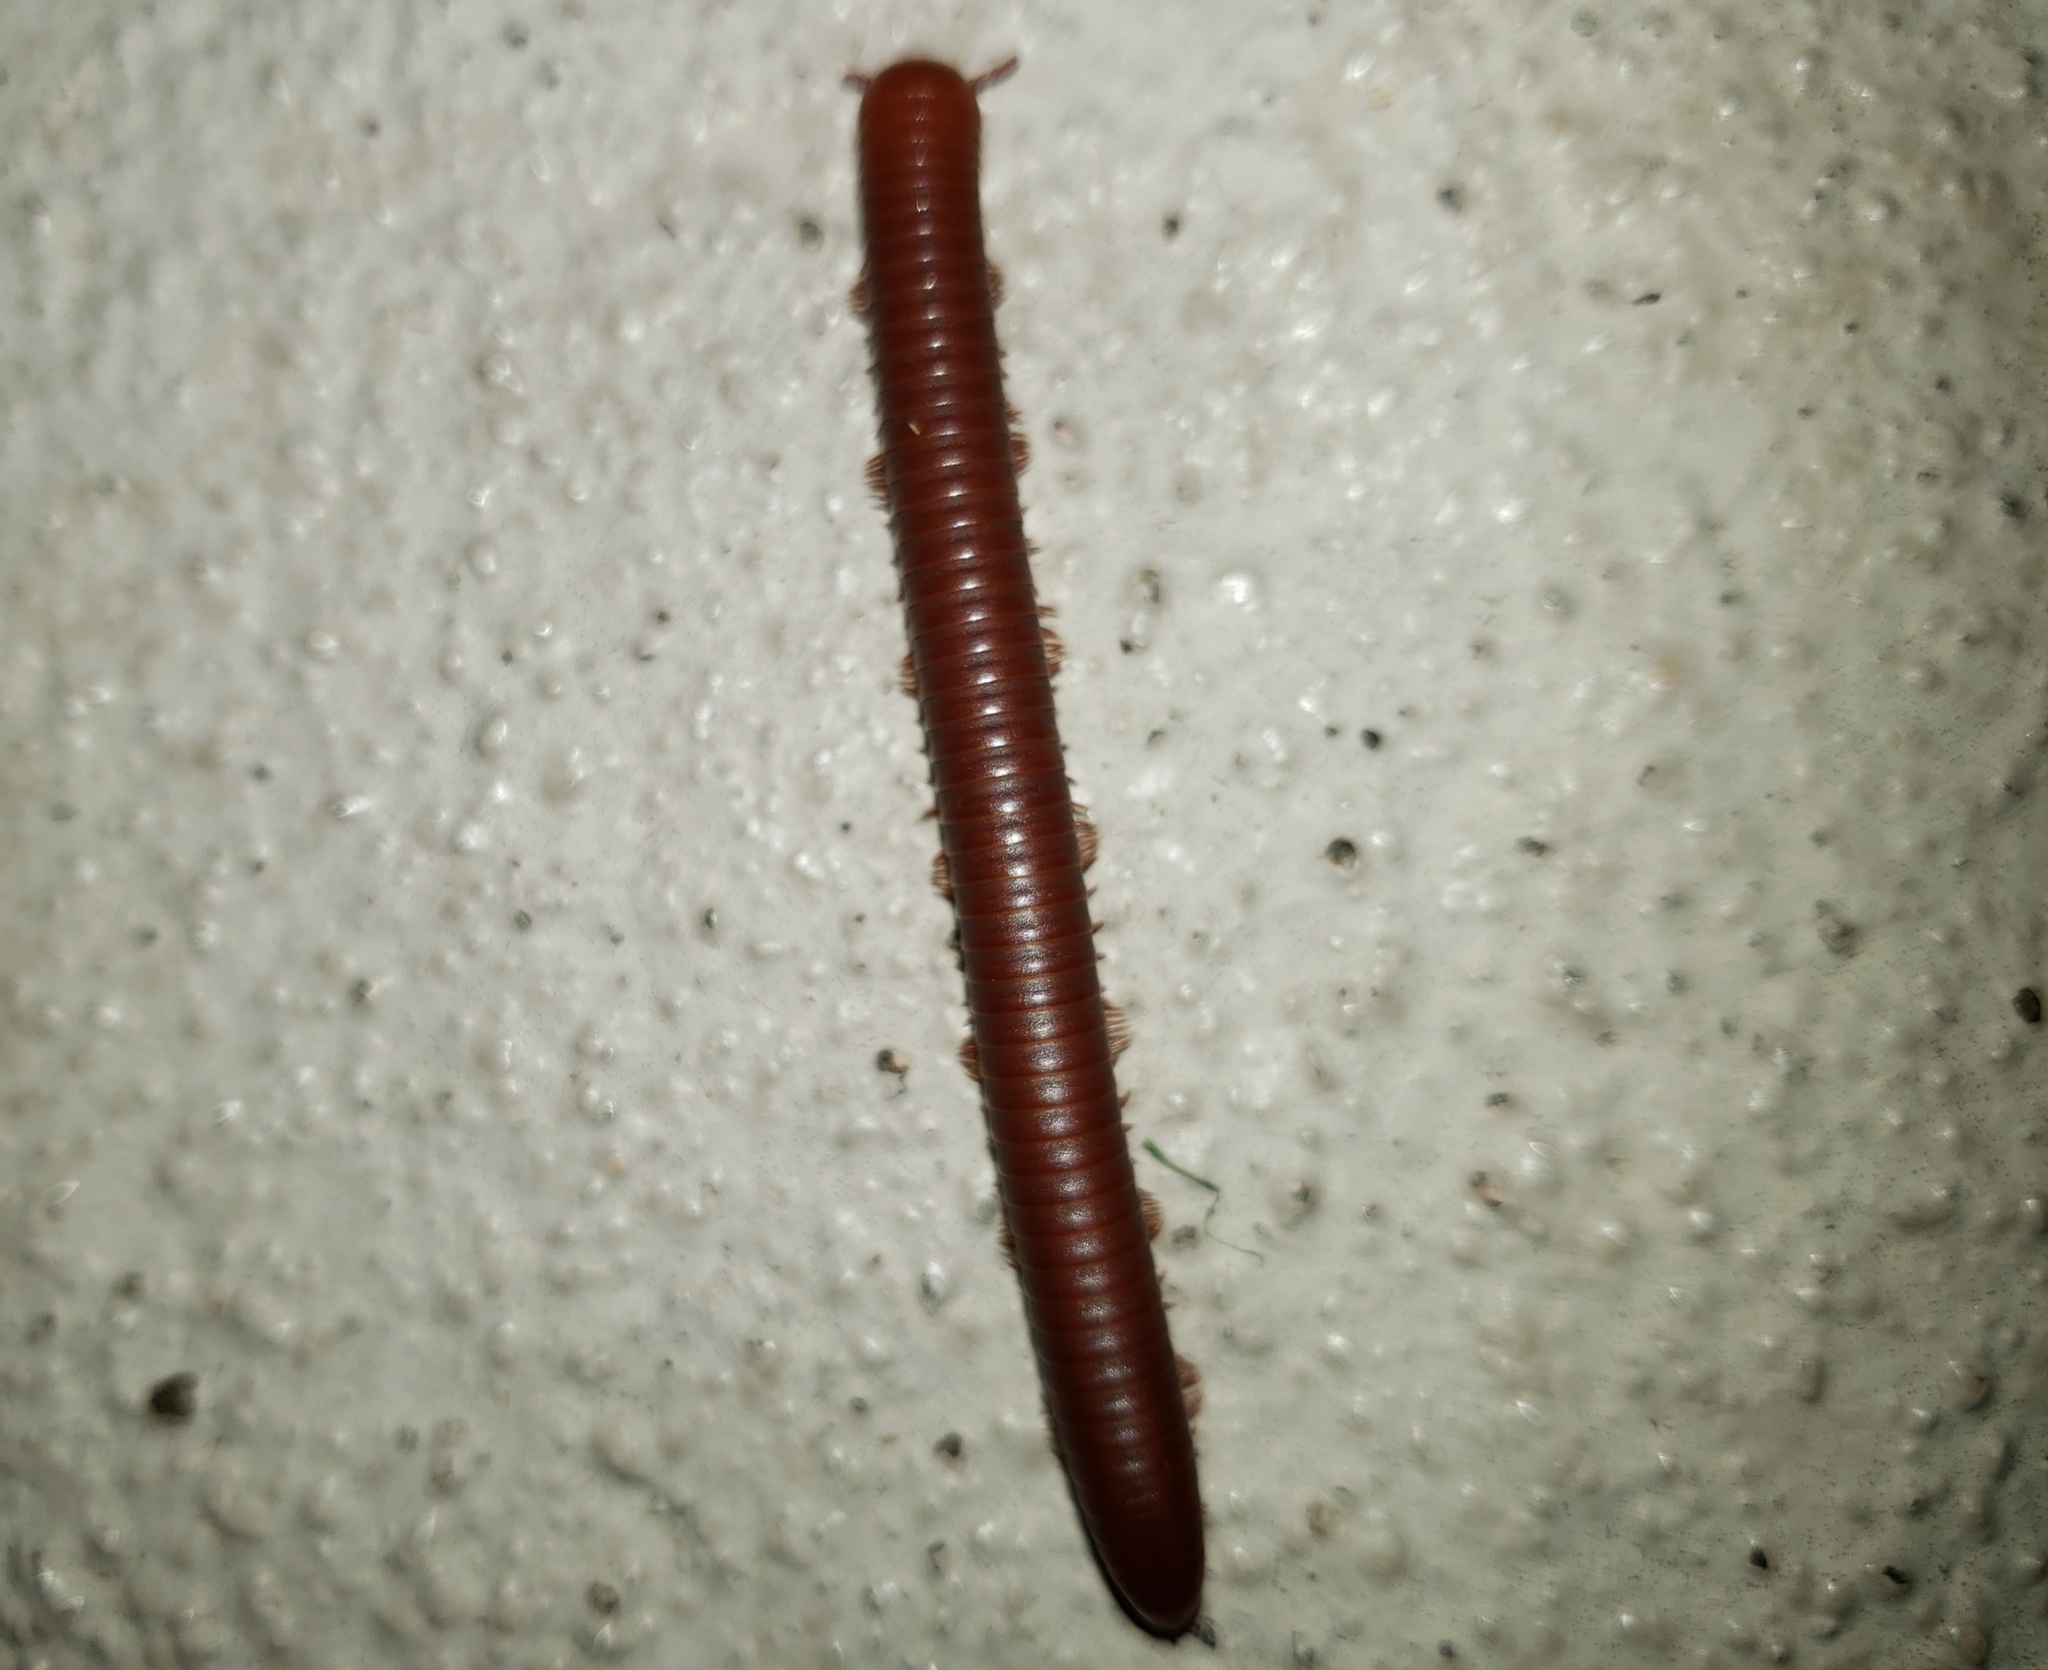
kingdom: Animalia
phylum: Arthropoda
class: Diplopoda
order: Spirobolida
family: Pachybolidae
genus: Trigoniulus
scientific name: Trigoniulus corallinus
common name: Millipede
